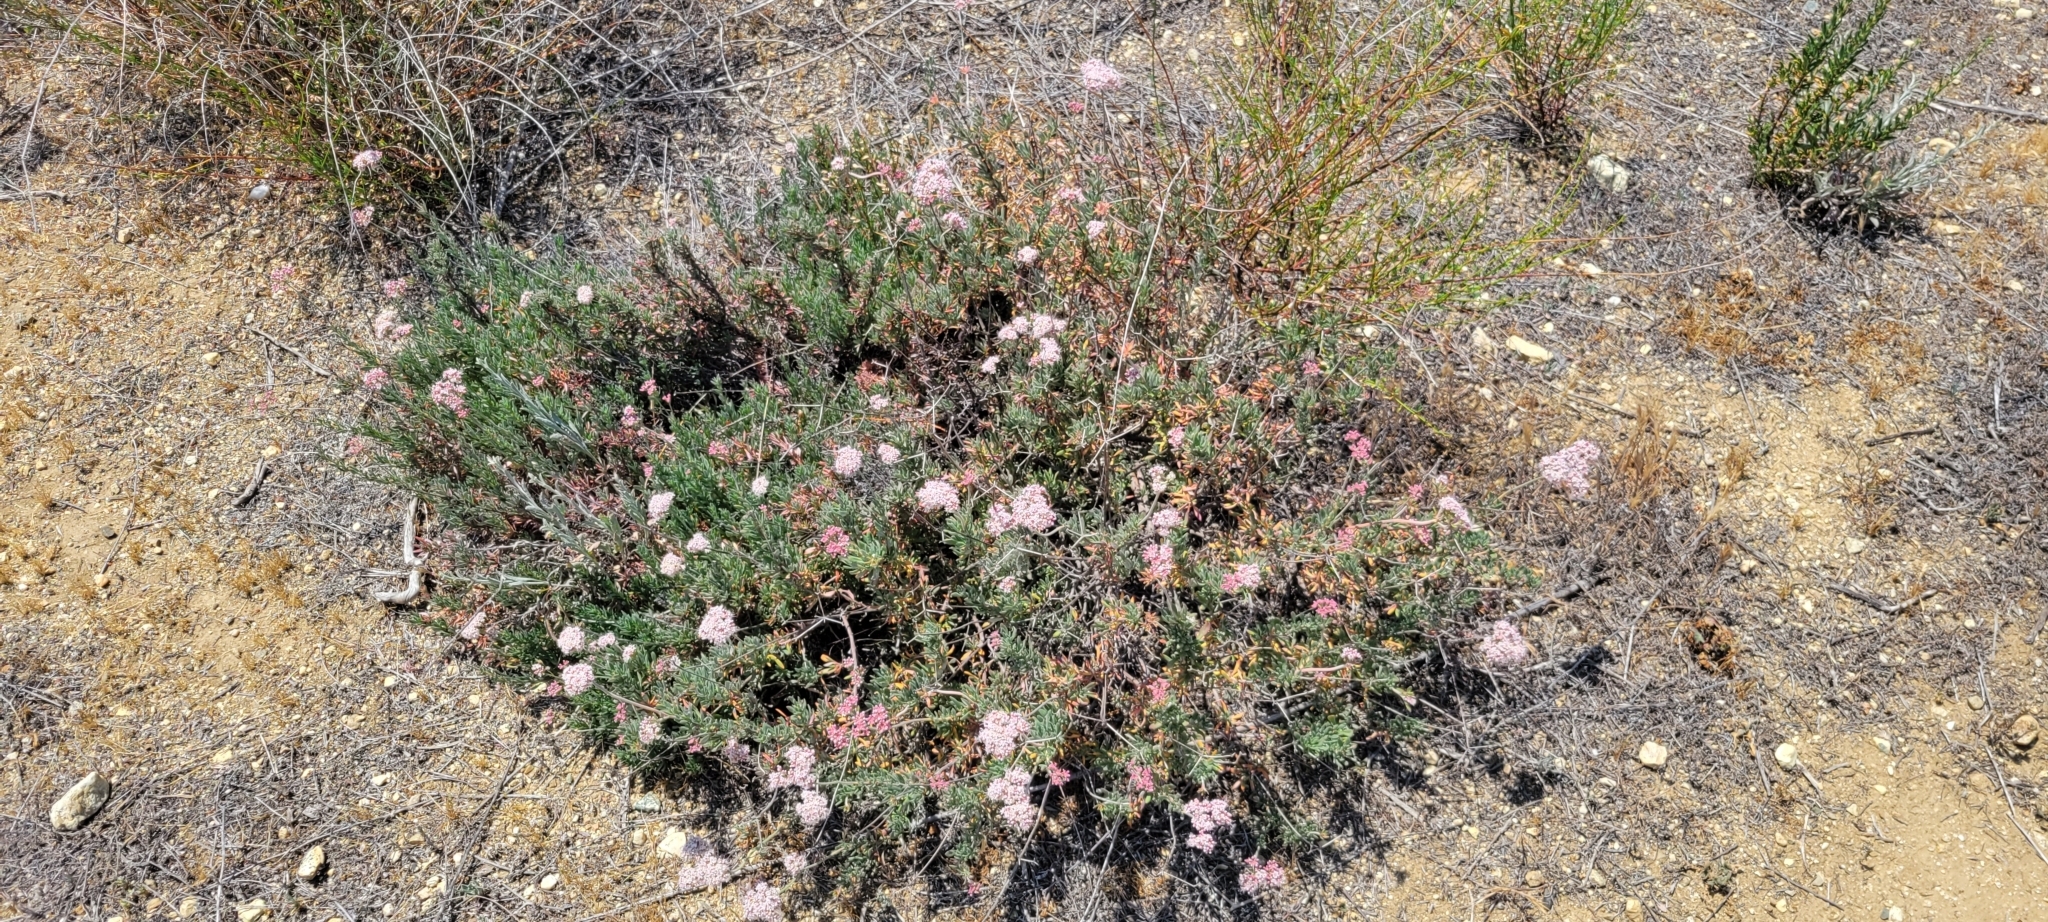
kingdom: Plantae
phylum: Tracheophyta
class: Magnoliopsida
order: Caryophyllales
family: Polygonaceae
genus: Eriogonum
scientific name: Eriogonum fasciculatum
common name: California wild buckwheat
